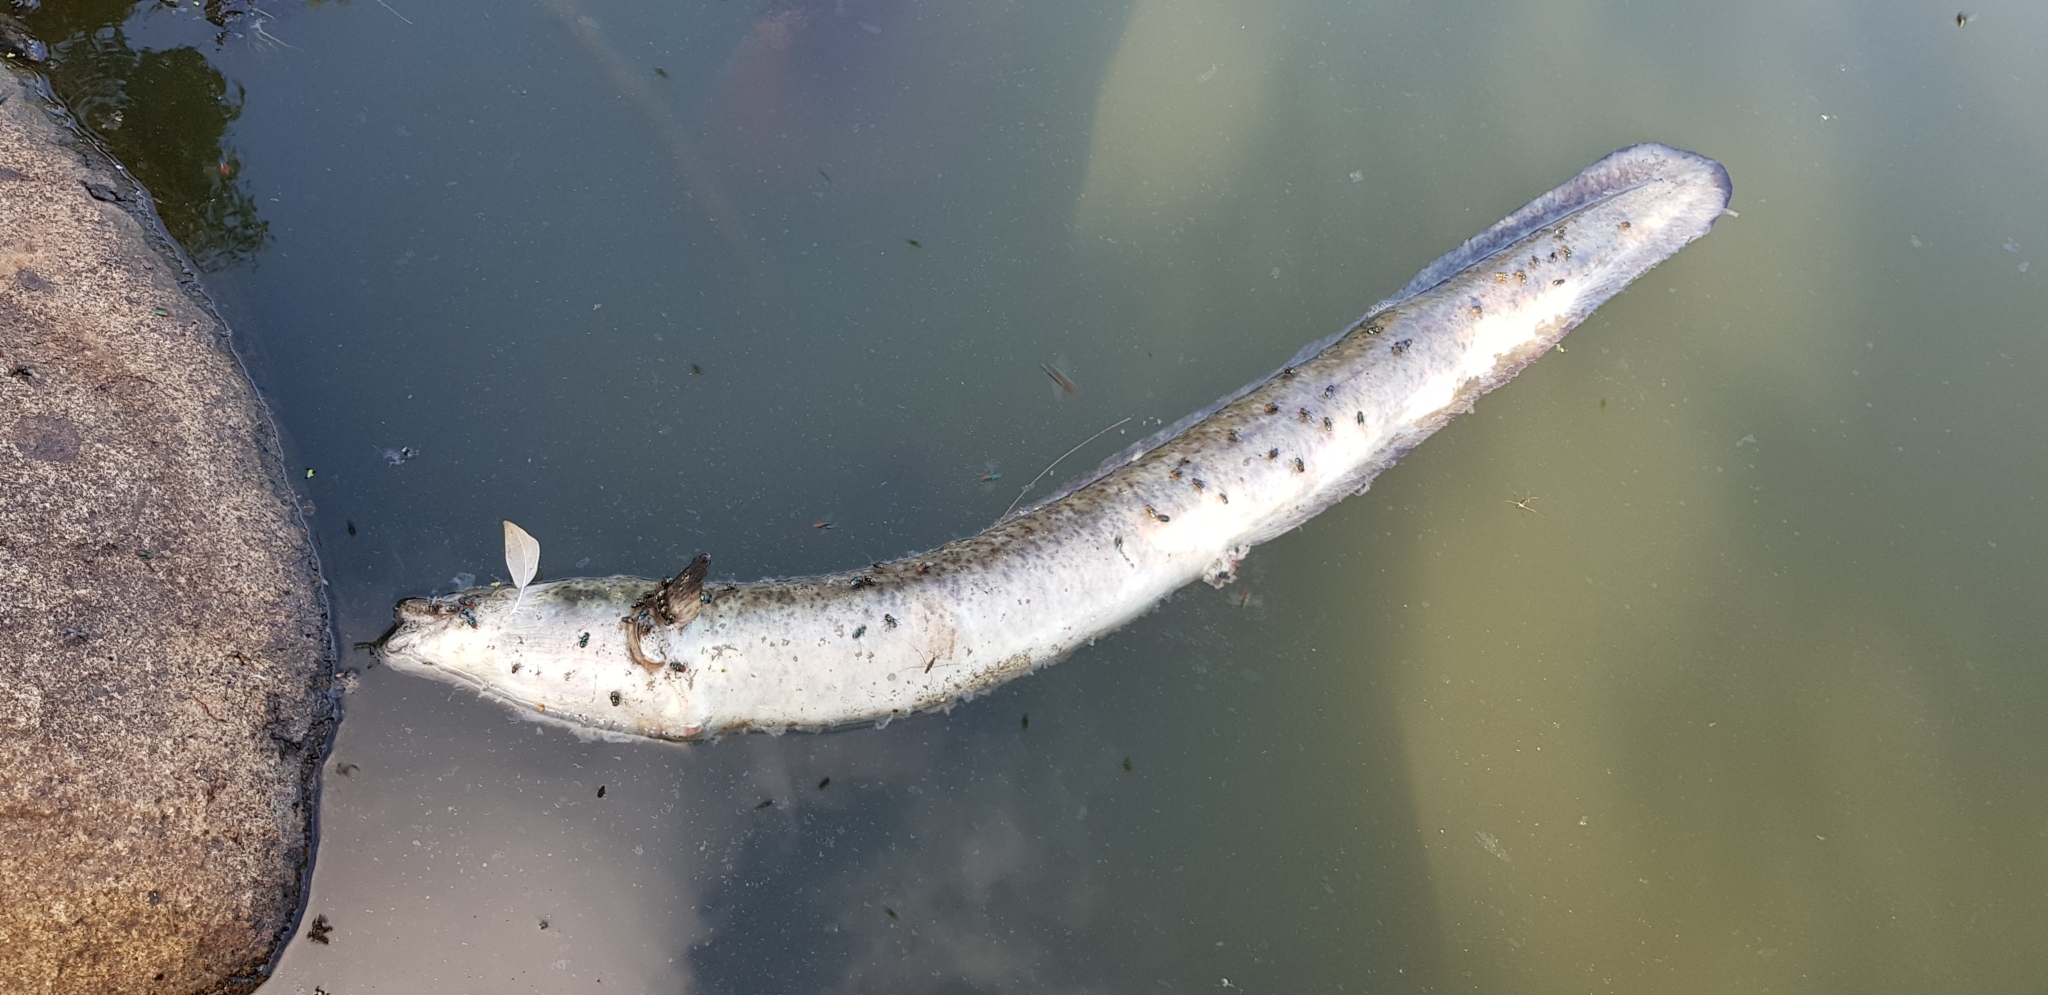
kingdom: Animalia
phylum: Chordata
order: Anguilliformes
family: Anguillidae
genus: Anguilla
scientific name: Anguilla reinhardtii
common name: Longfin eel
